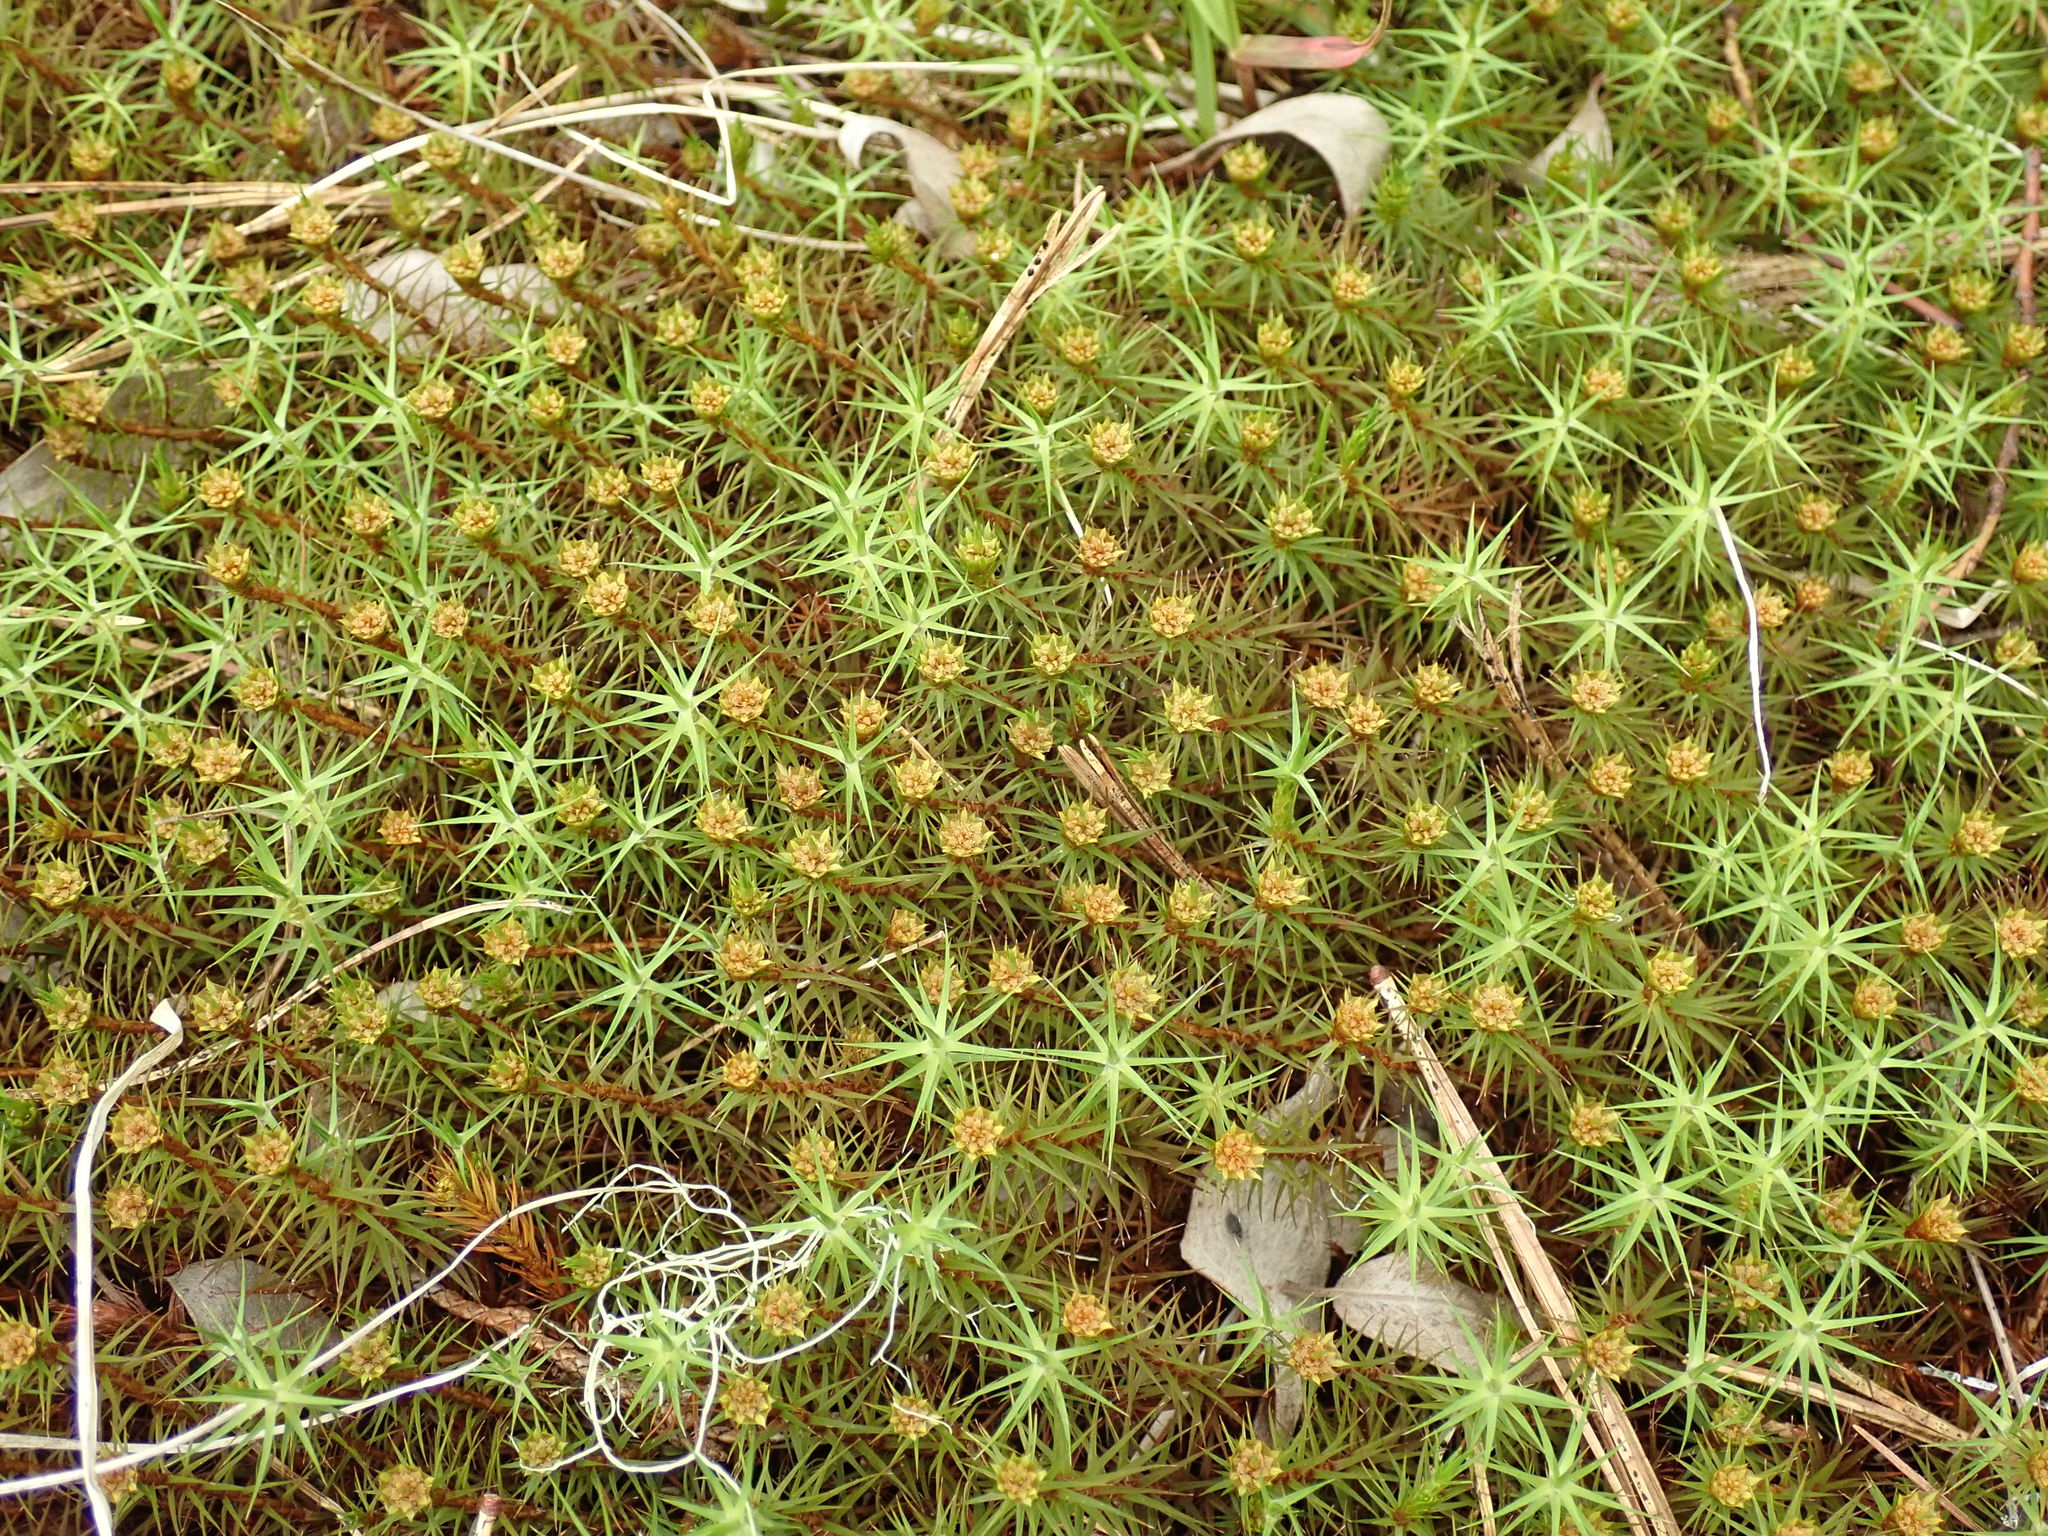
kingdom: Plantae
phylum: Bryophyta
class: Polytrichopsida
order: Polytrichales
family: Polytrichaceae
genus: Polytrichum
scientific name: Polytrichum commune
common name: Common haircap
